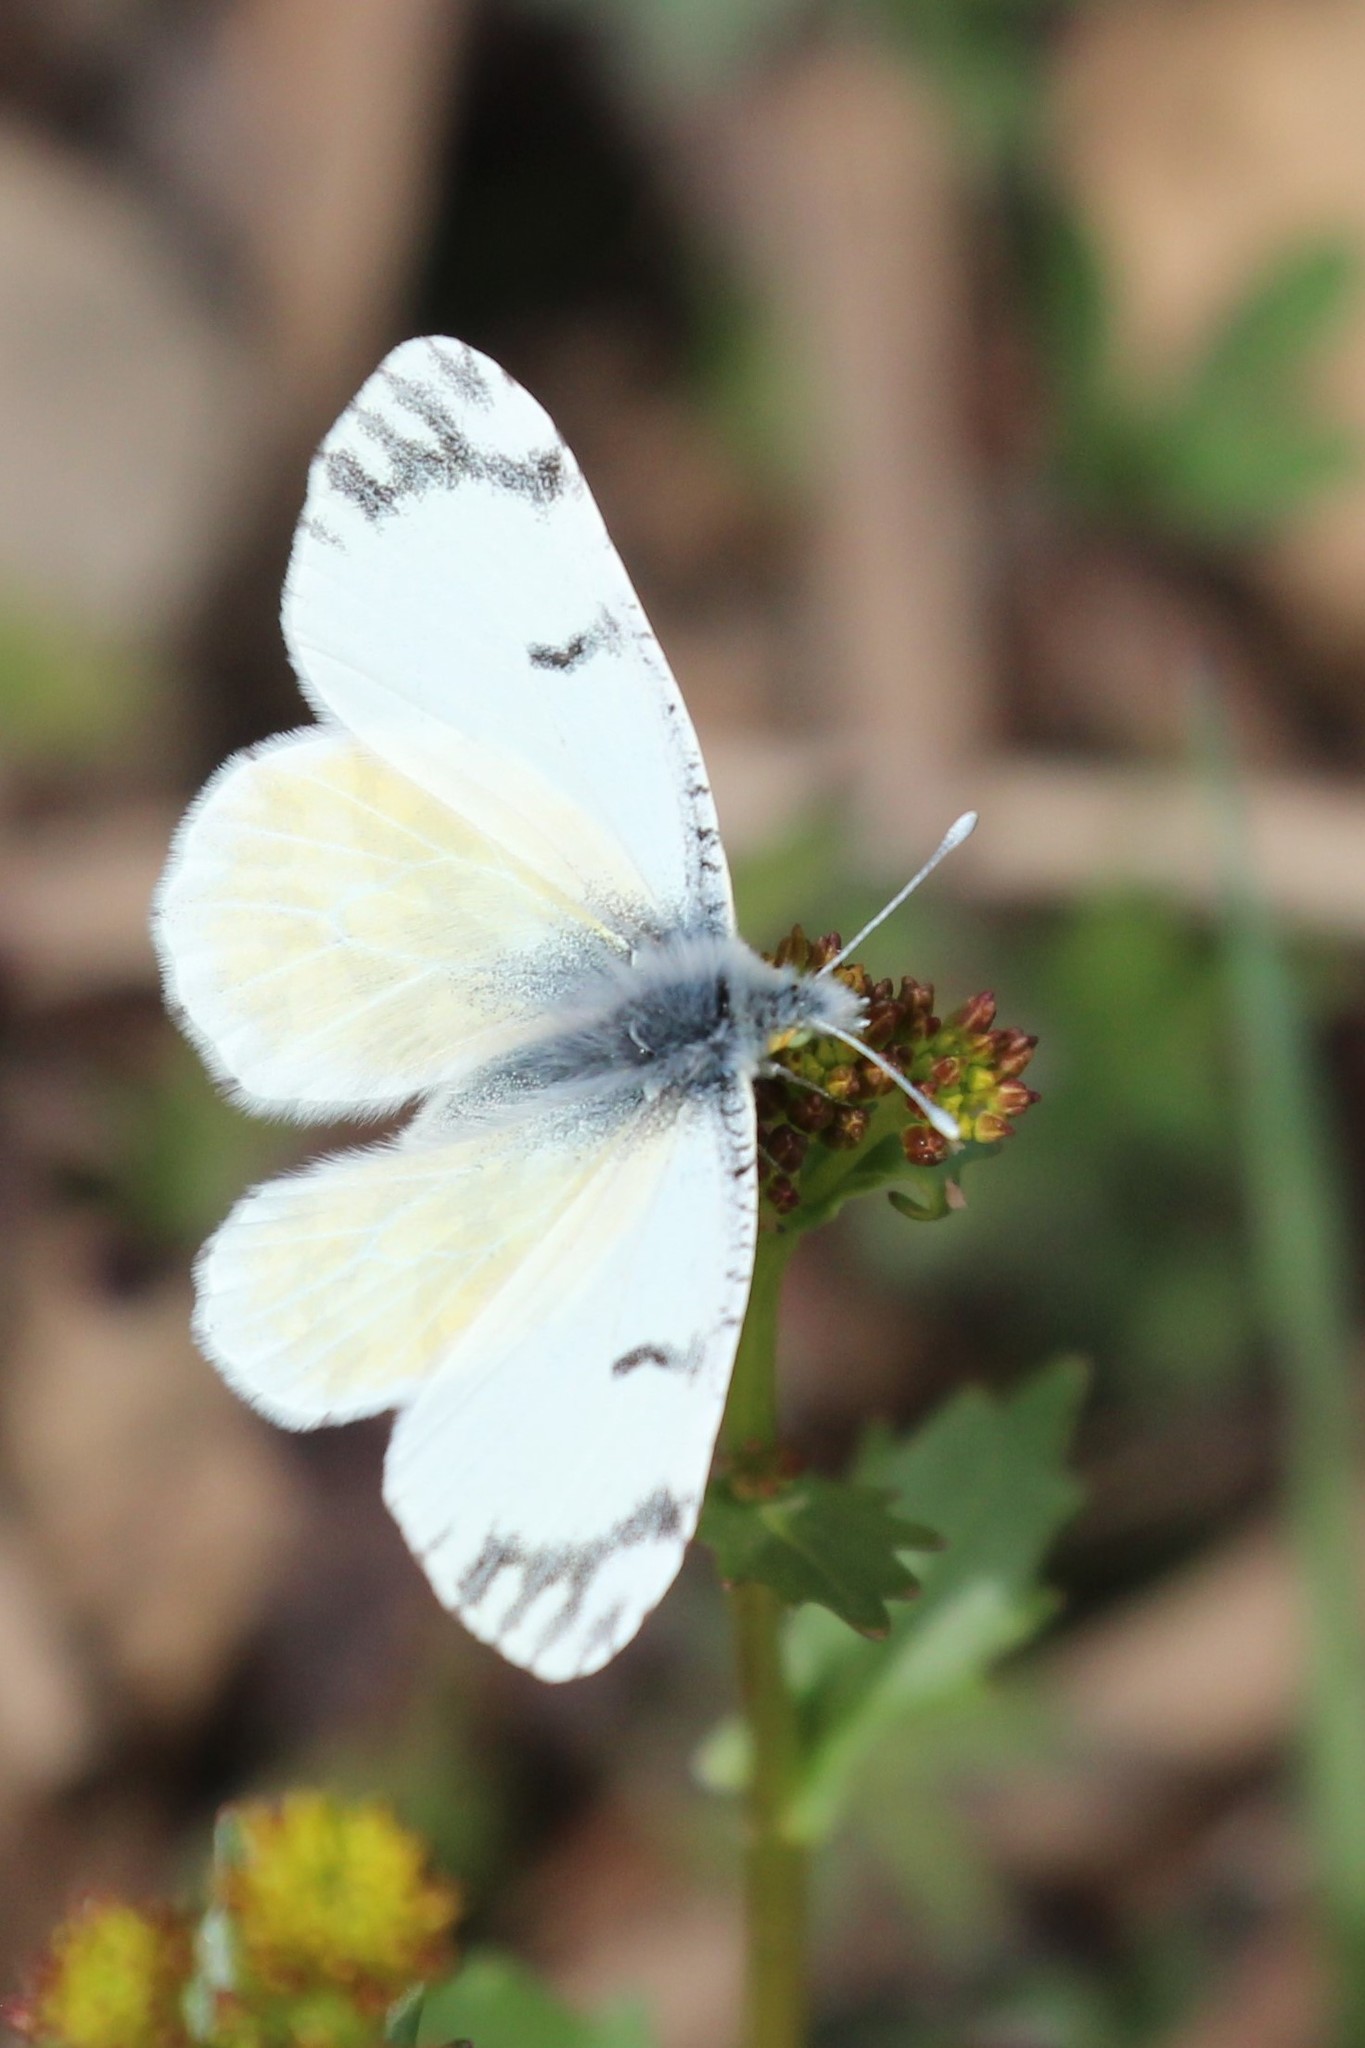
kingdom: Animalia
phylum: Arthropoda
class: Insecta
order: Lepidoptera
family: Pieridae
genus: Euchloe
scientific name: Euchloe ausonides
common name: Creamy marblewing
